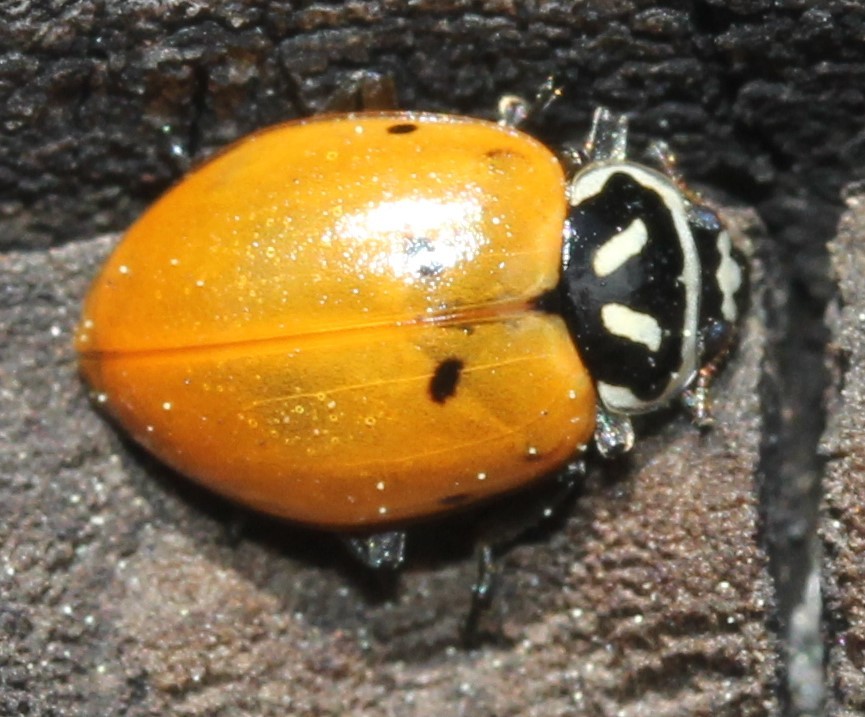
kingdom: Animalia
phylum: Arthropoda
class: Insecta
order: Coleoptera
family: Coccinellidae
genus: Hippodamia
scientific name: Hippodamia convergens
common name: Convergent lady beetle
